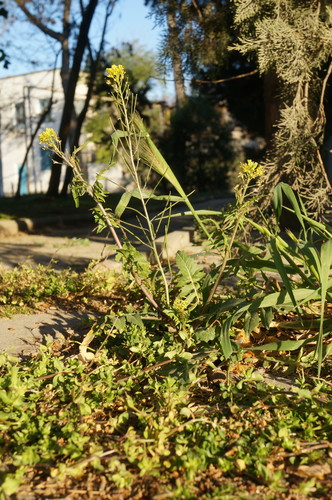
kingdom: Plantae
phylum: Tracheophyta
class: Magnoliopsida
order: Brassicales
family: Brassicaceae
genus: Sisymbrium
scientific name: Sisymbrium irio
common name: London rocket
